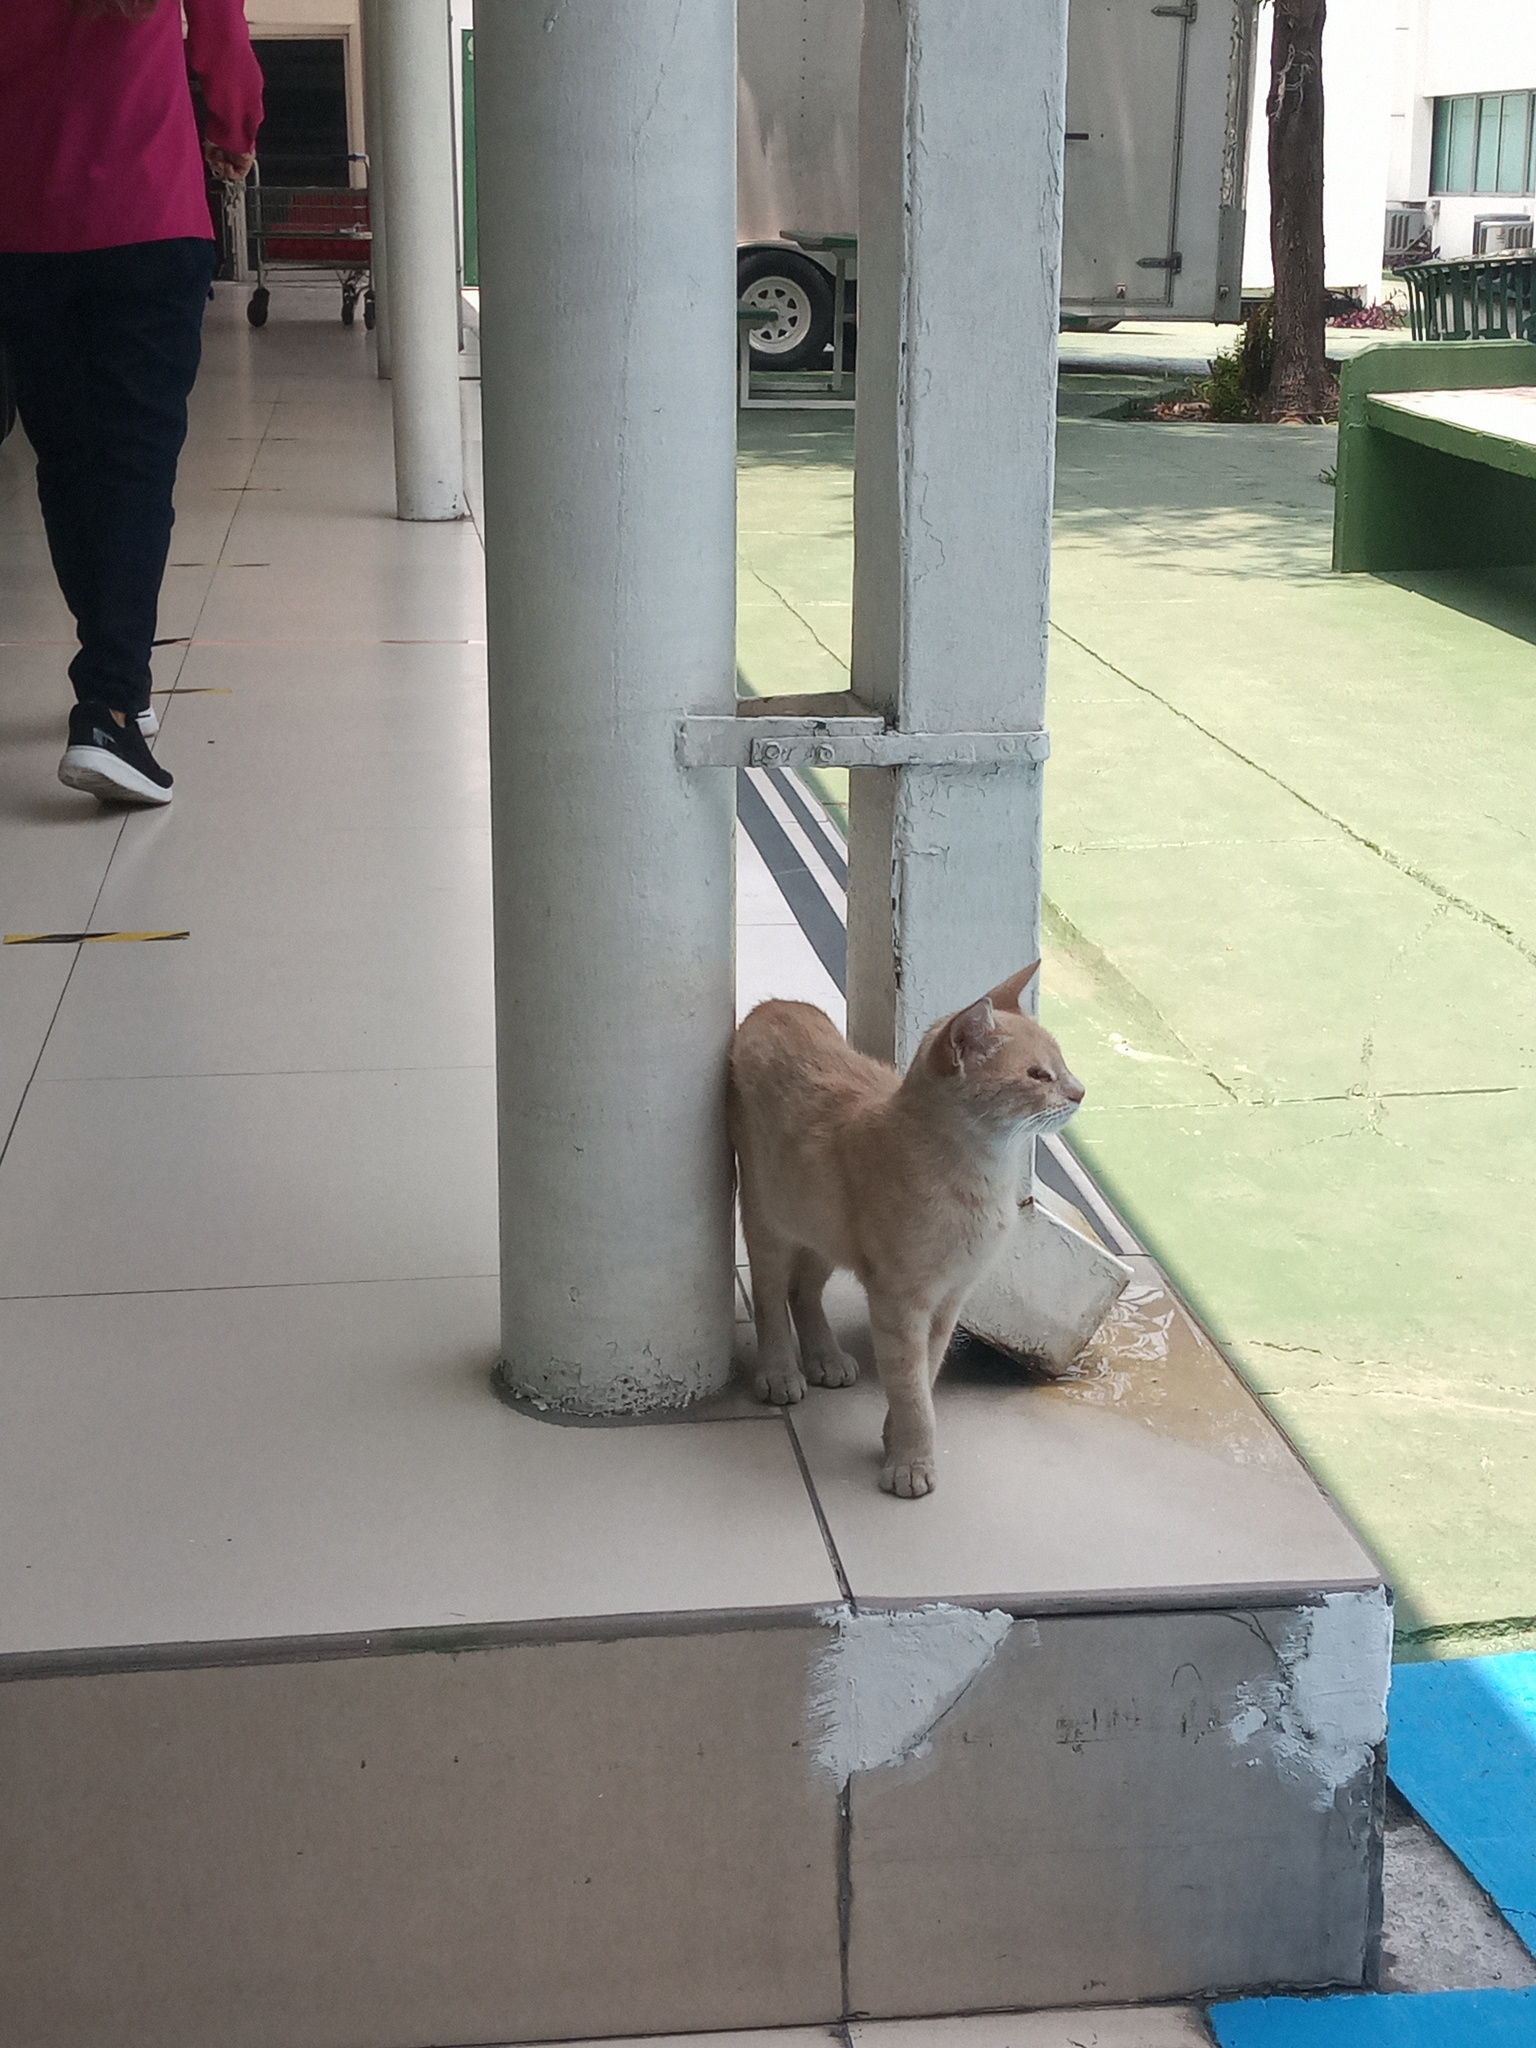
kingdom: Animalia
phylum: Chordata
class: Mammalia
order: Carnivora
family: Felidae
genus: Felis
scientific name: Felis catus
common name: Domestic cat
